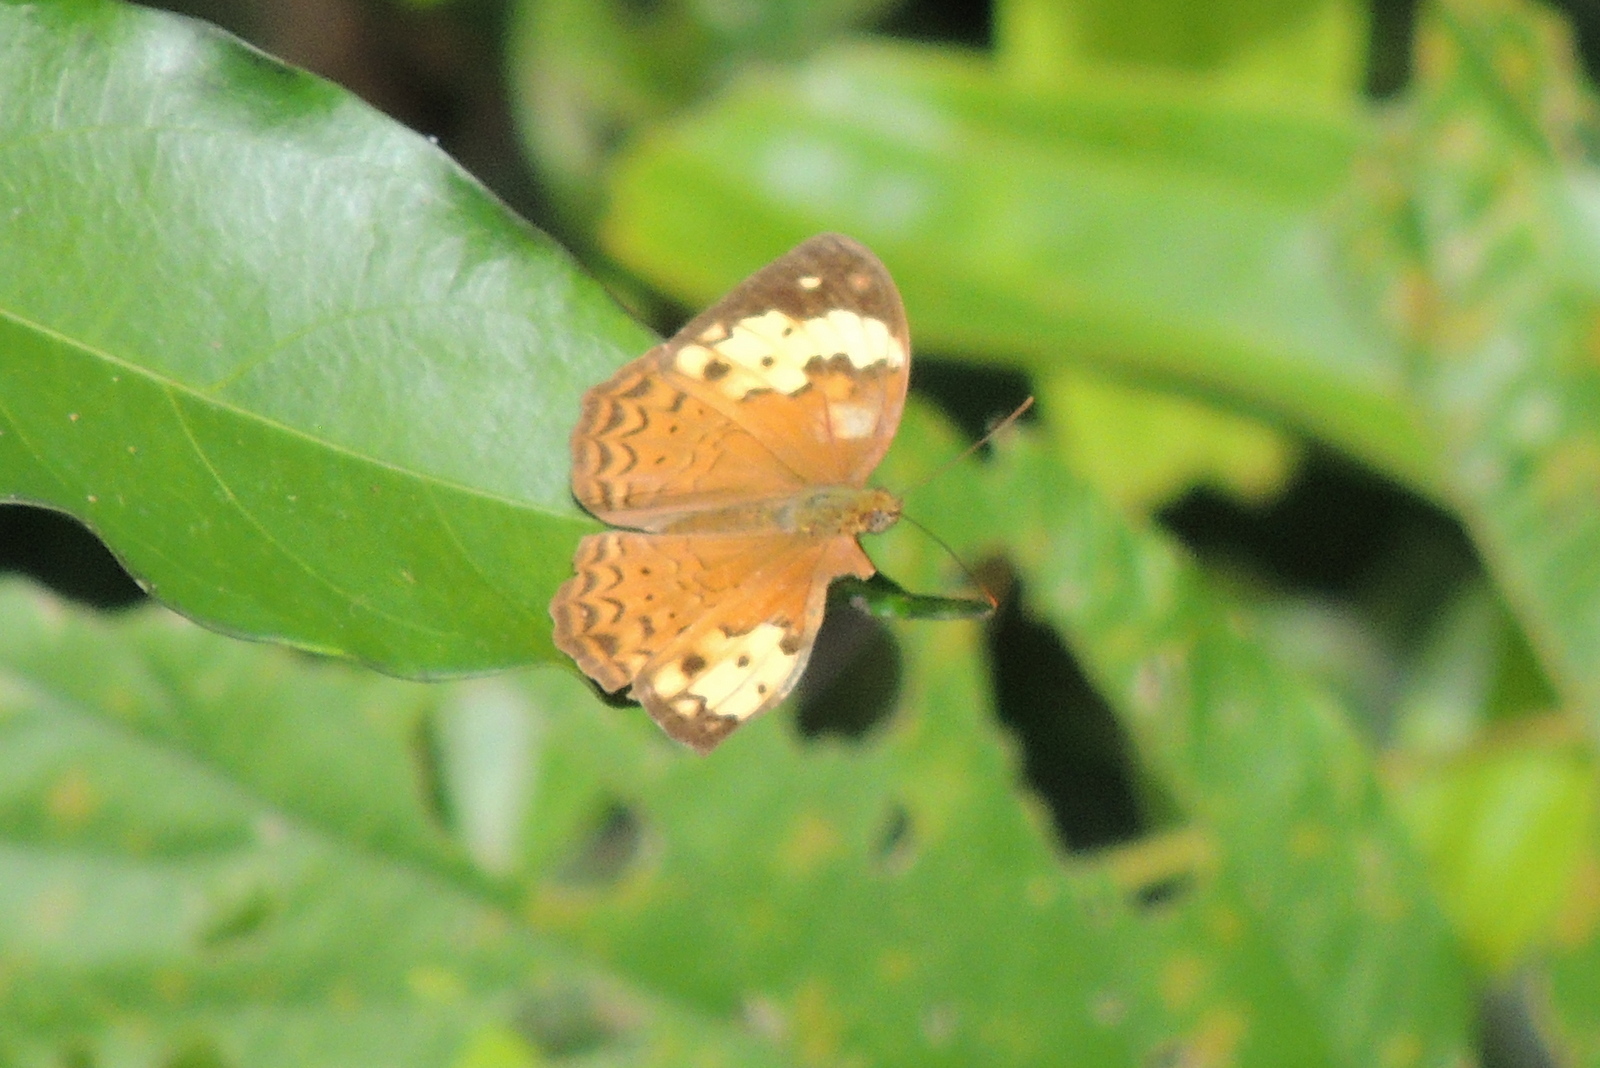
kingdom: Animalia
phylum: Arthropoda
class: Insecta
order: Lepidoptera
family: Nymphalidae
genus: Cupha
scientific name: Cupha erymanthis
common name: Rustic
